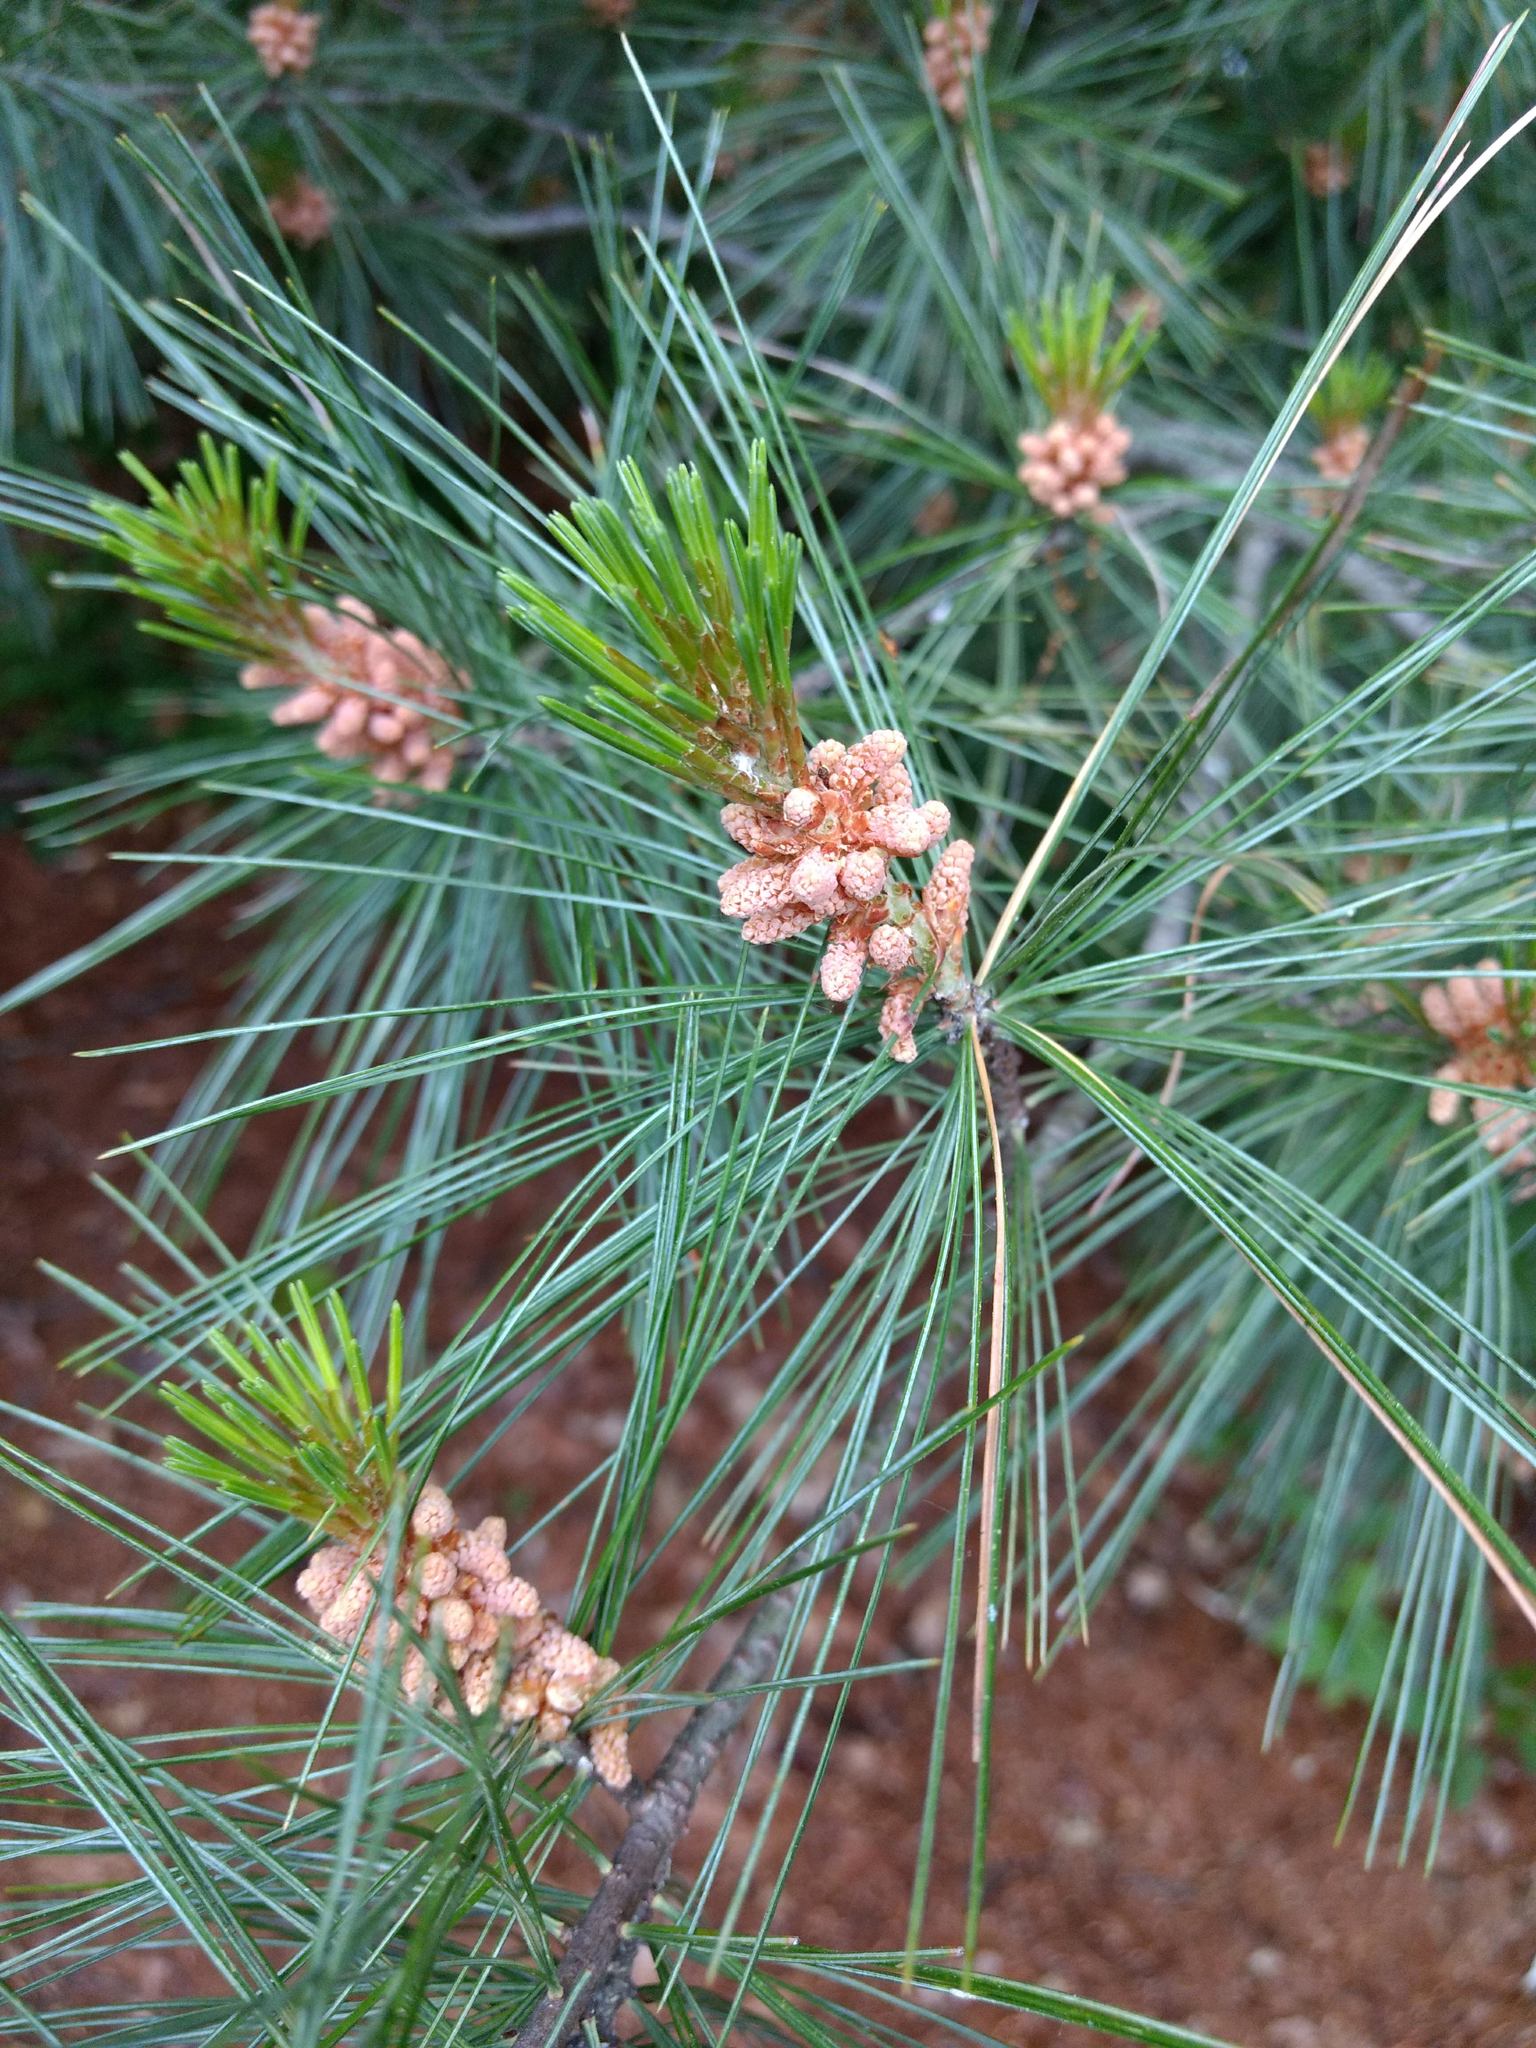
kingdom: Plantae
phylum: Tracheophyta
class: Pinopsida
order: Pinales
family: Pinaceae
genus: Pinus
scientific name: Pinus strobus
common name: Weymouth pine
